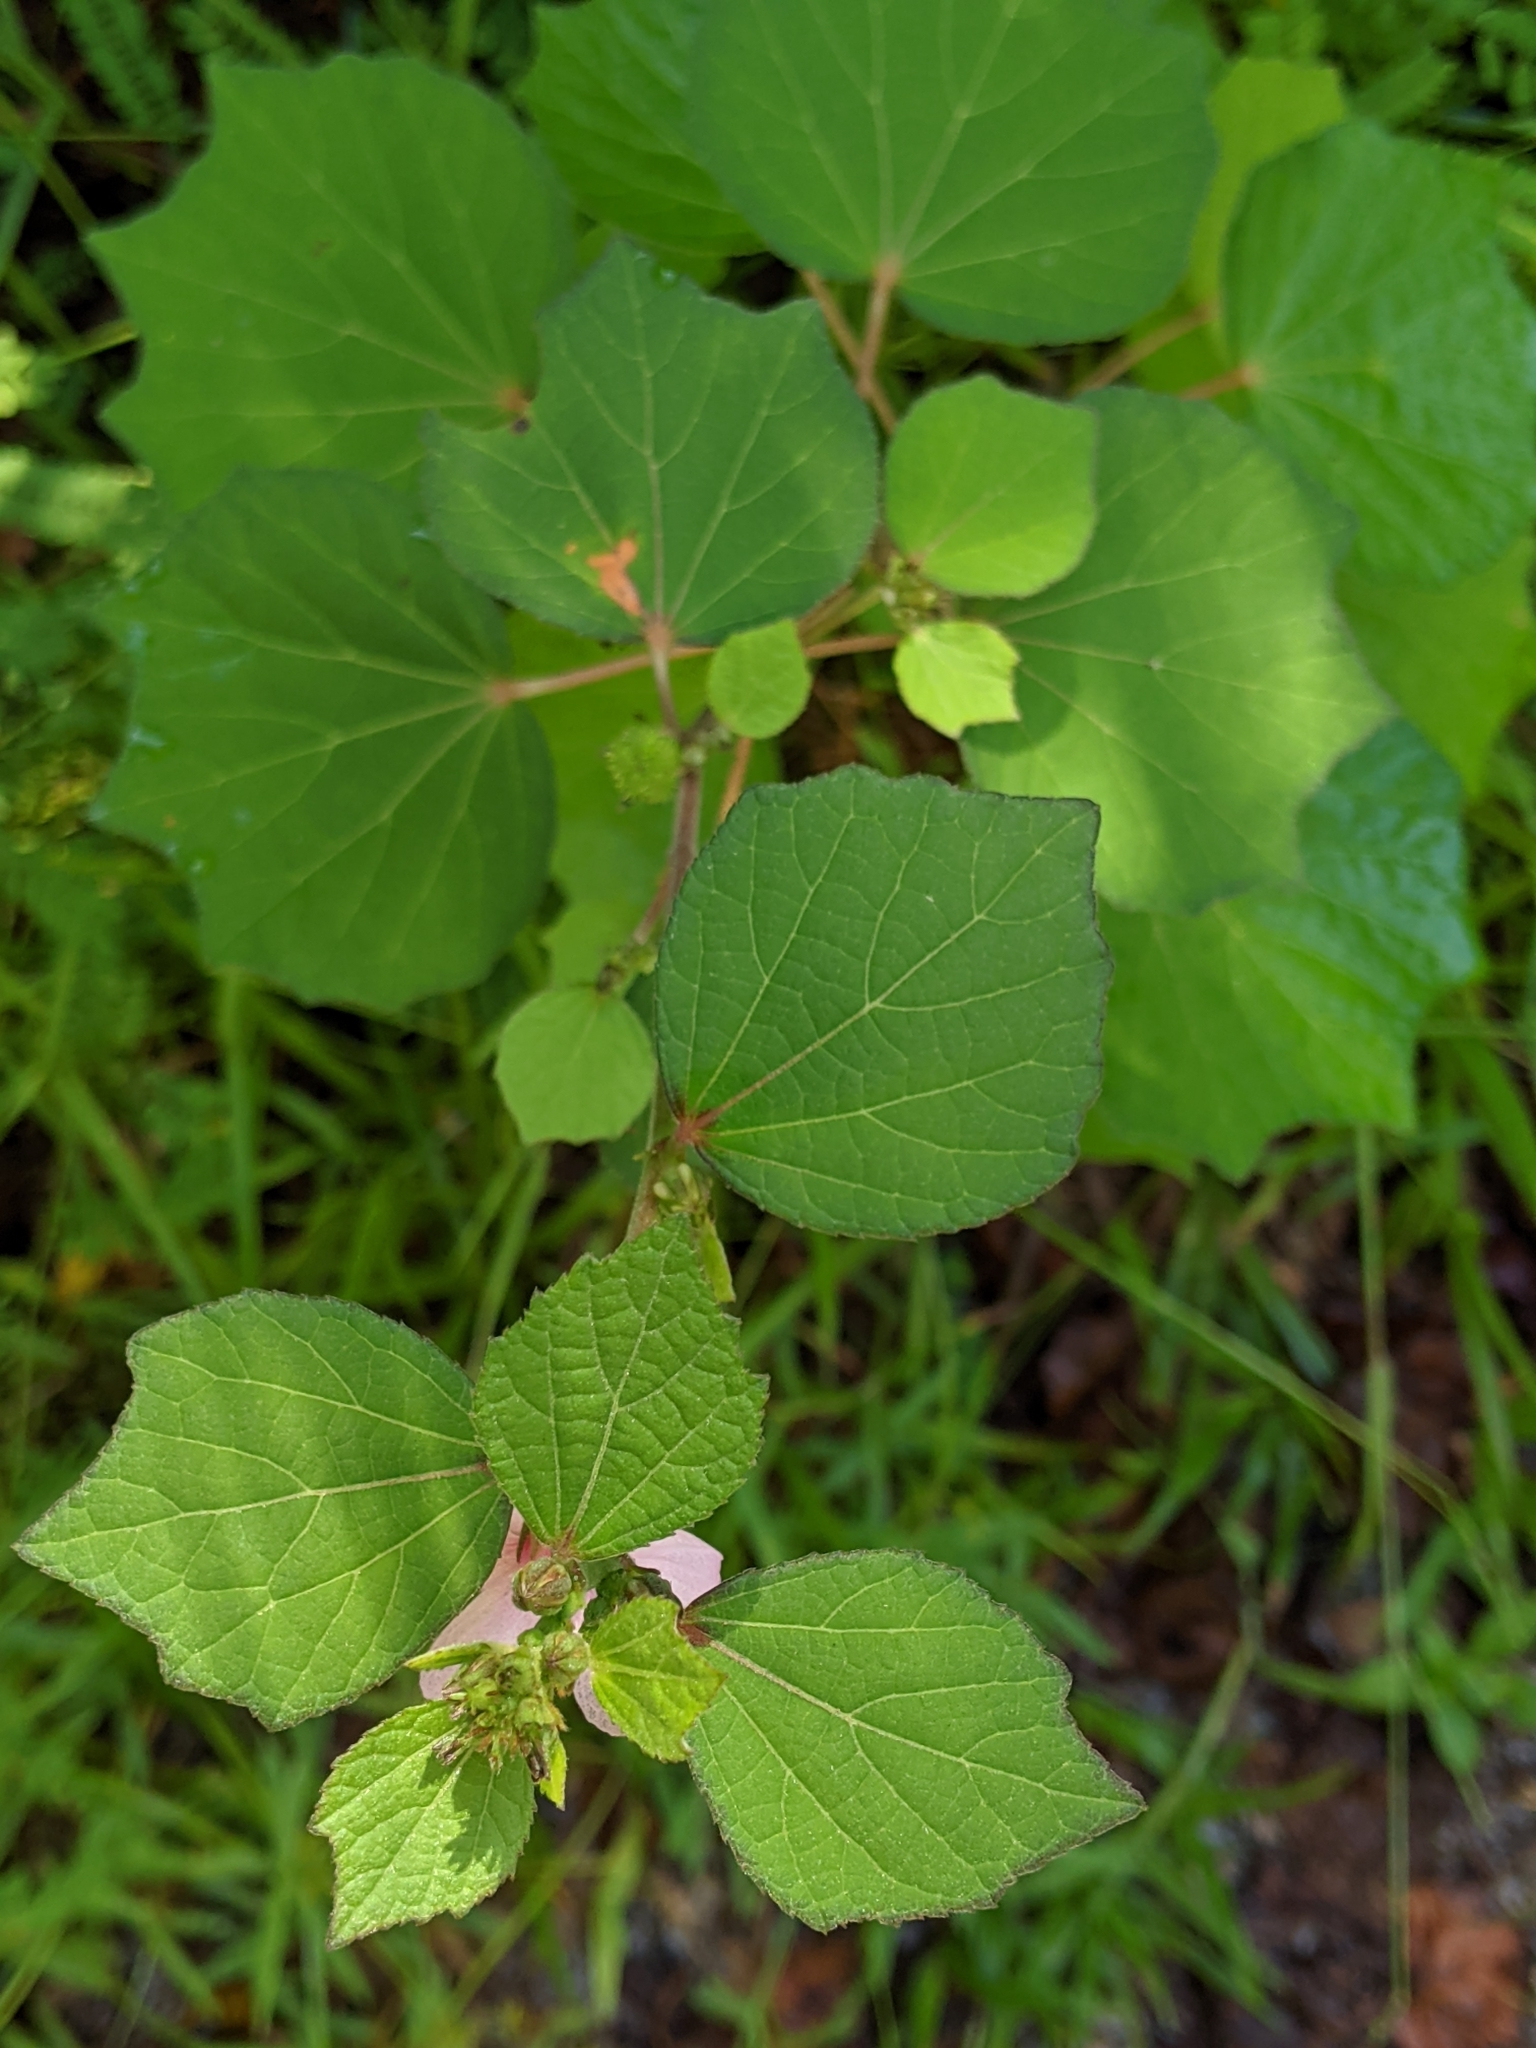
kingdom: Plantae
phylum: Tracheophyta
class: Magnoliopsida
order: Malvales
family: Malvaceae
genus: Urena
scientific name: Urena lobata
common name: Caesarweed
